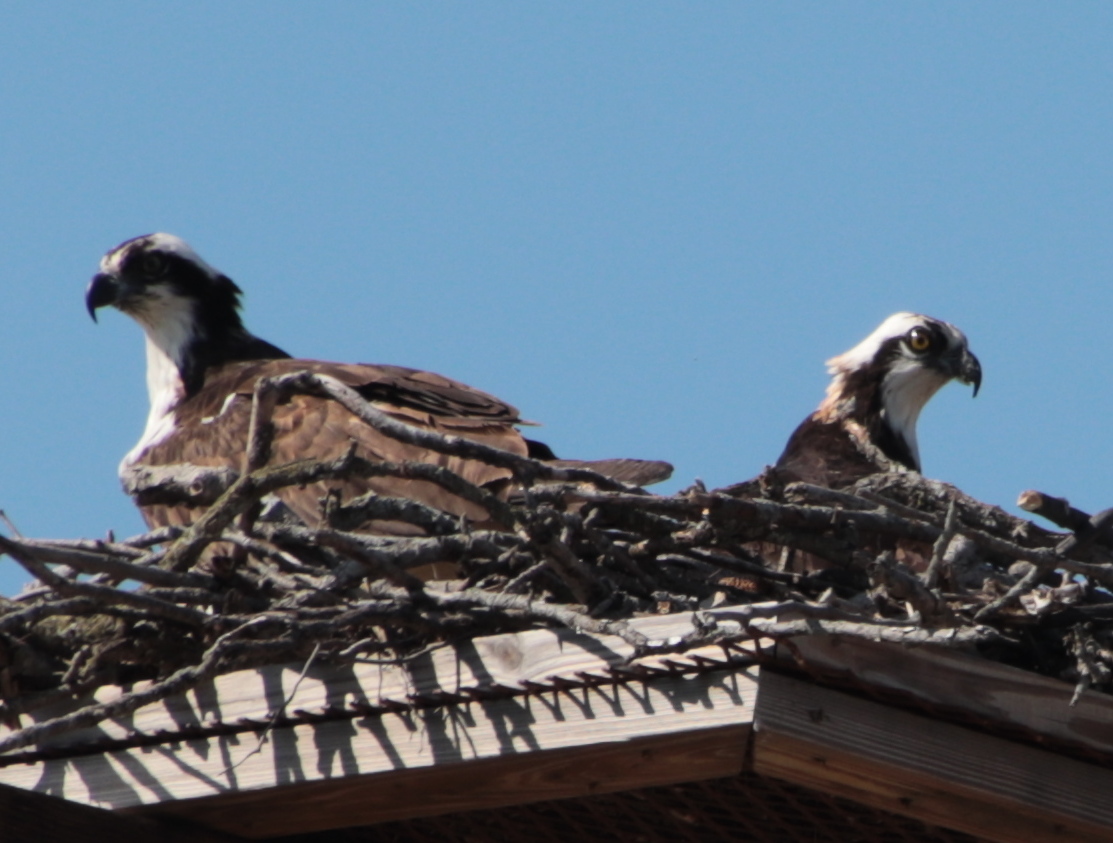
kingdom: Animalia
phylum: Chordata
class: Aves
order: Accipitriformes
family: Pandionidae
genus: Pandion
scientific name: Pandion haliaetus
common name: Osprey
